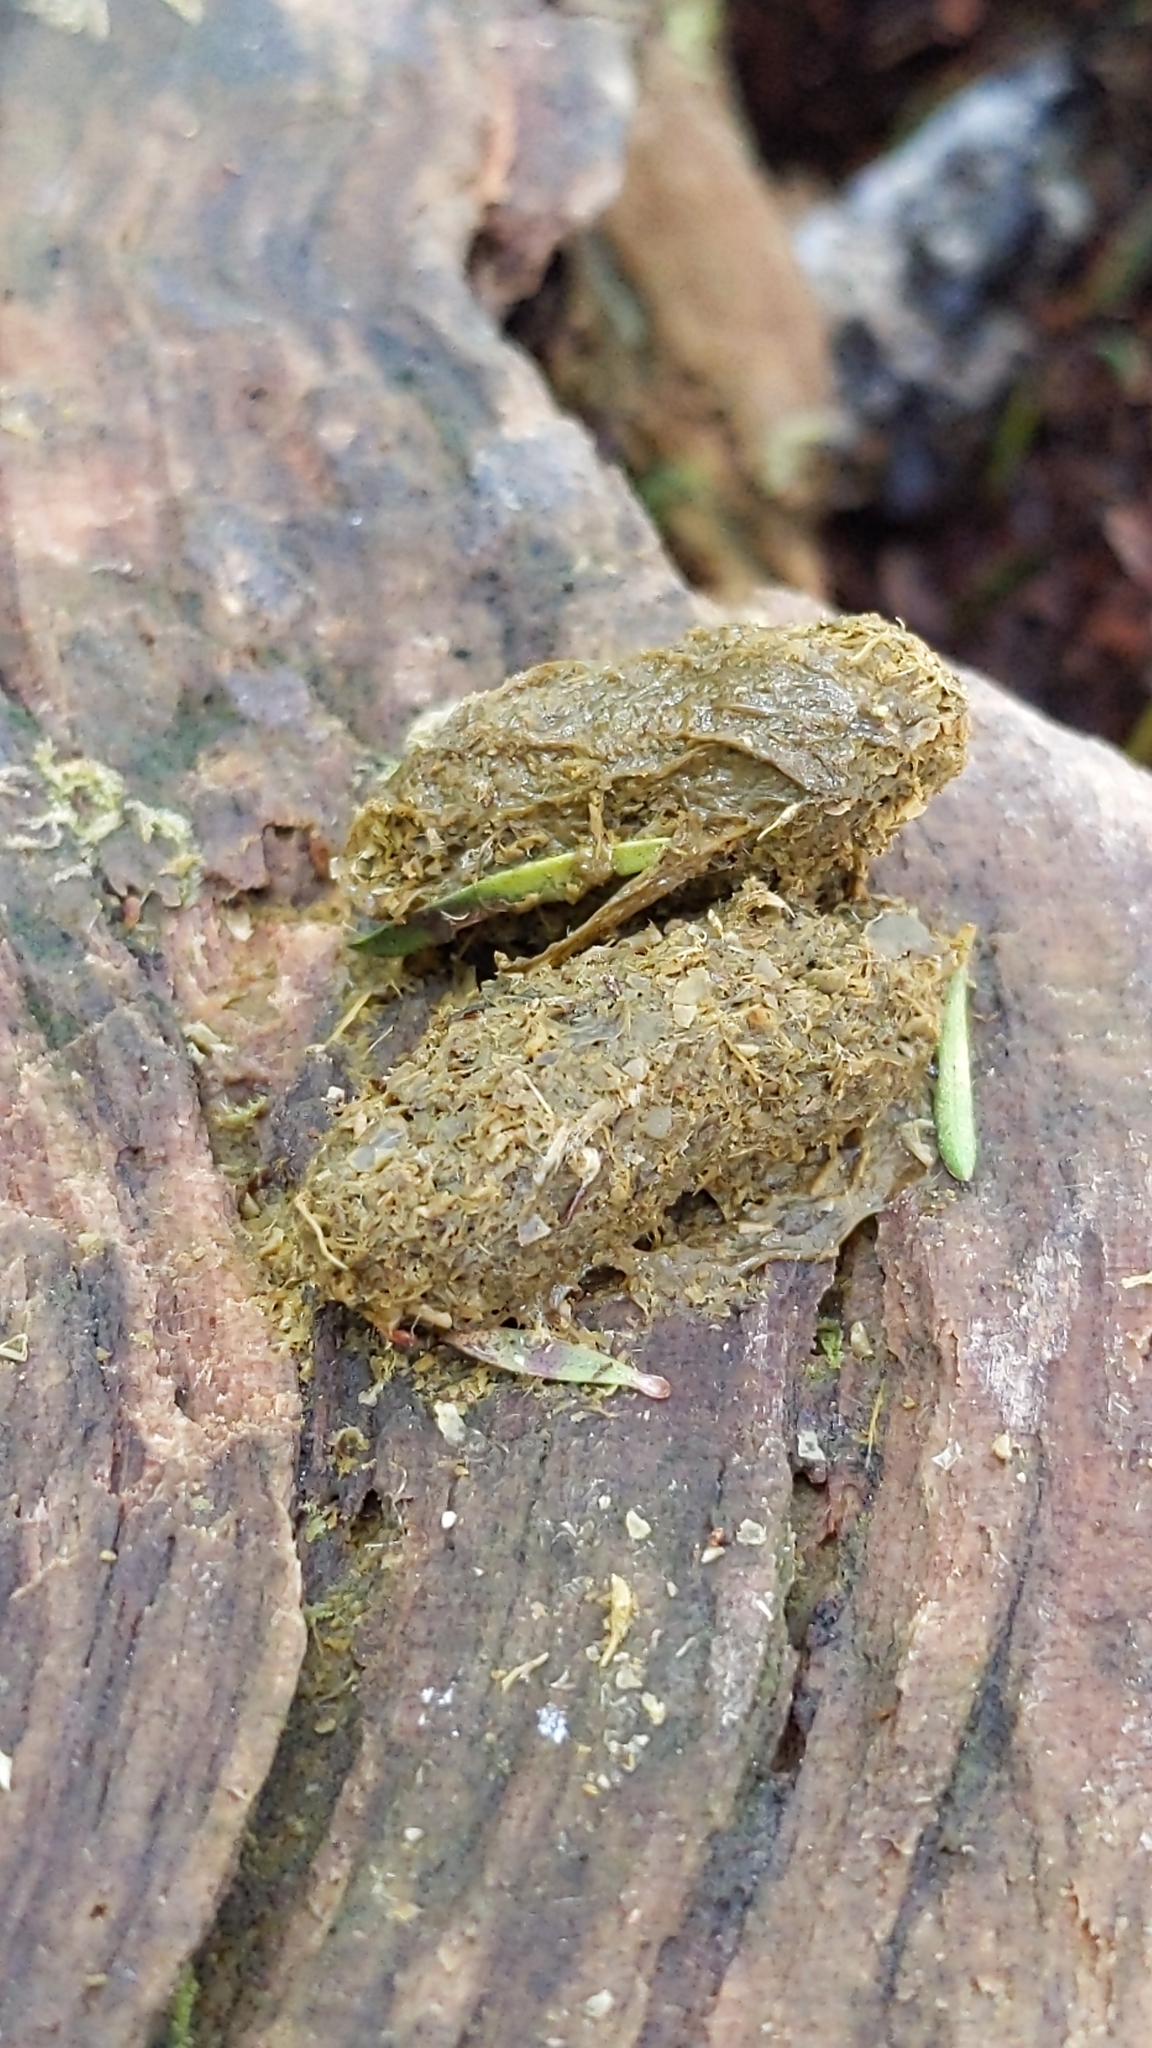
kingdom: Animalia
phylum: Chordata
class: Mammalia
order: Diprotodontia
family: Phalangeridae
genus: Trichosurus
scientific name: Trichosurus vulpecula
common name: Common brushtail
